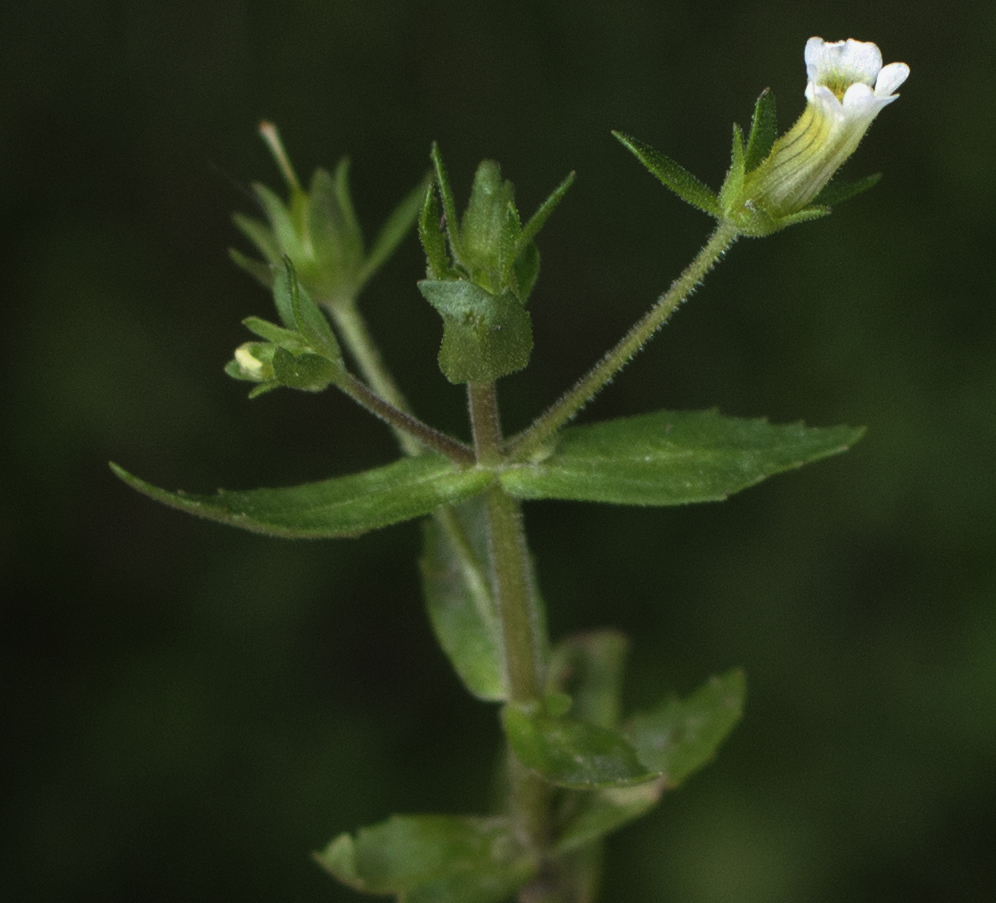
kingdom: Plantae
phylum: Tracheophyta
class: Magnoliopsida
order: Lamiales
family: Plantaginaceae
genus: Gratiola
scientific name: Gratiola neglecta
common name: American hedge-hyssop
